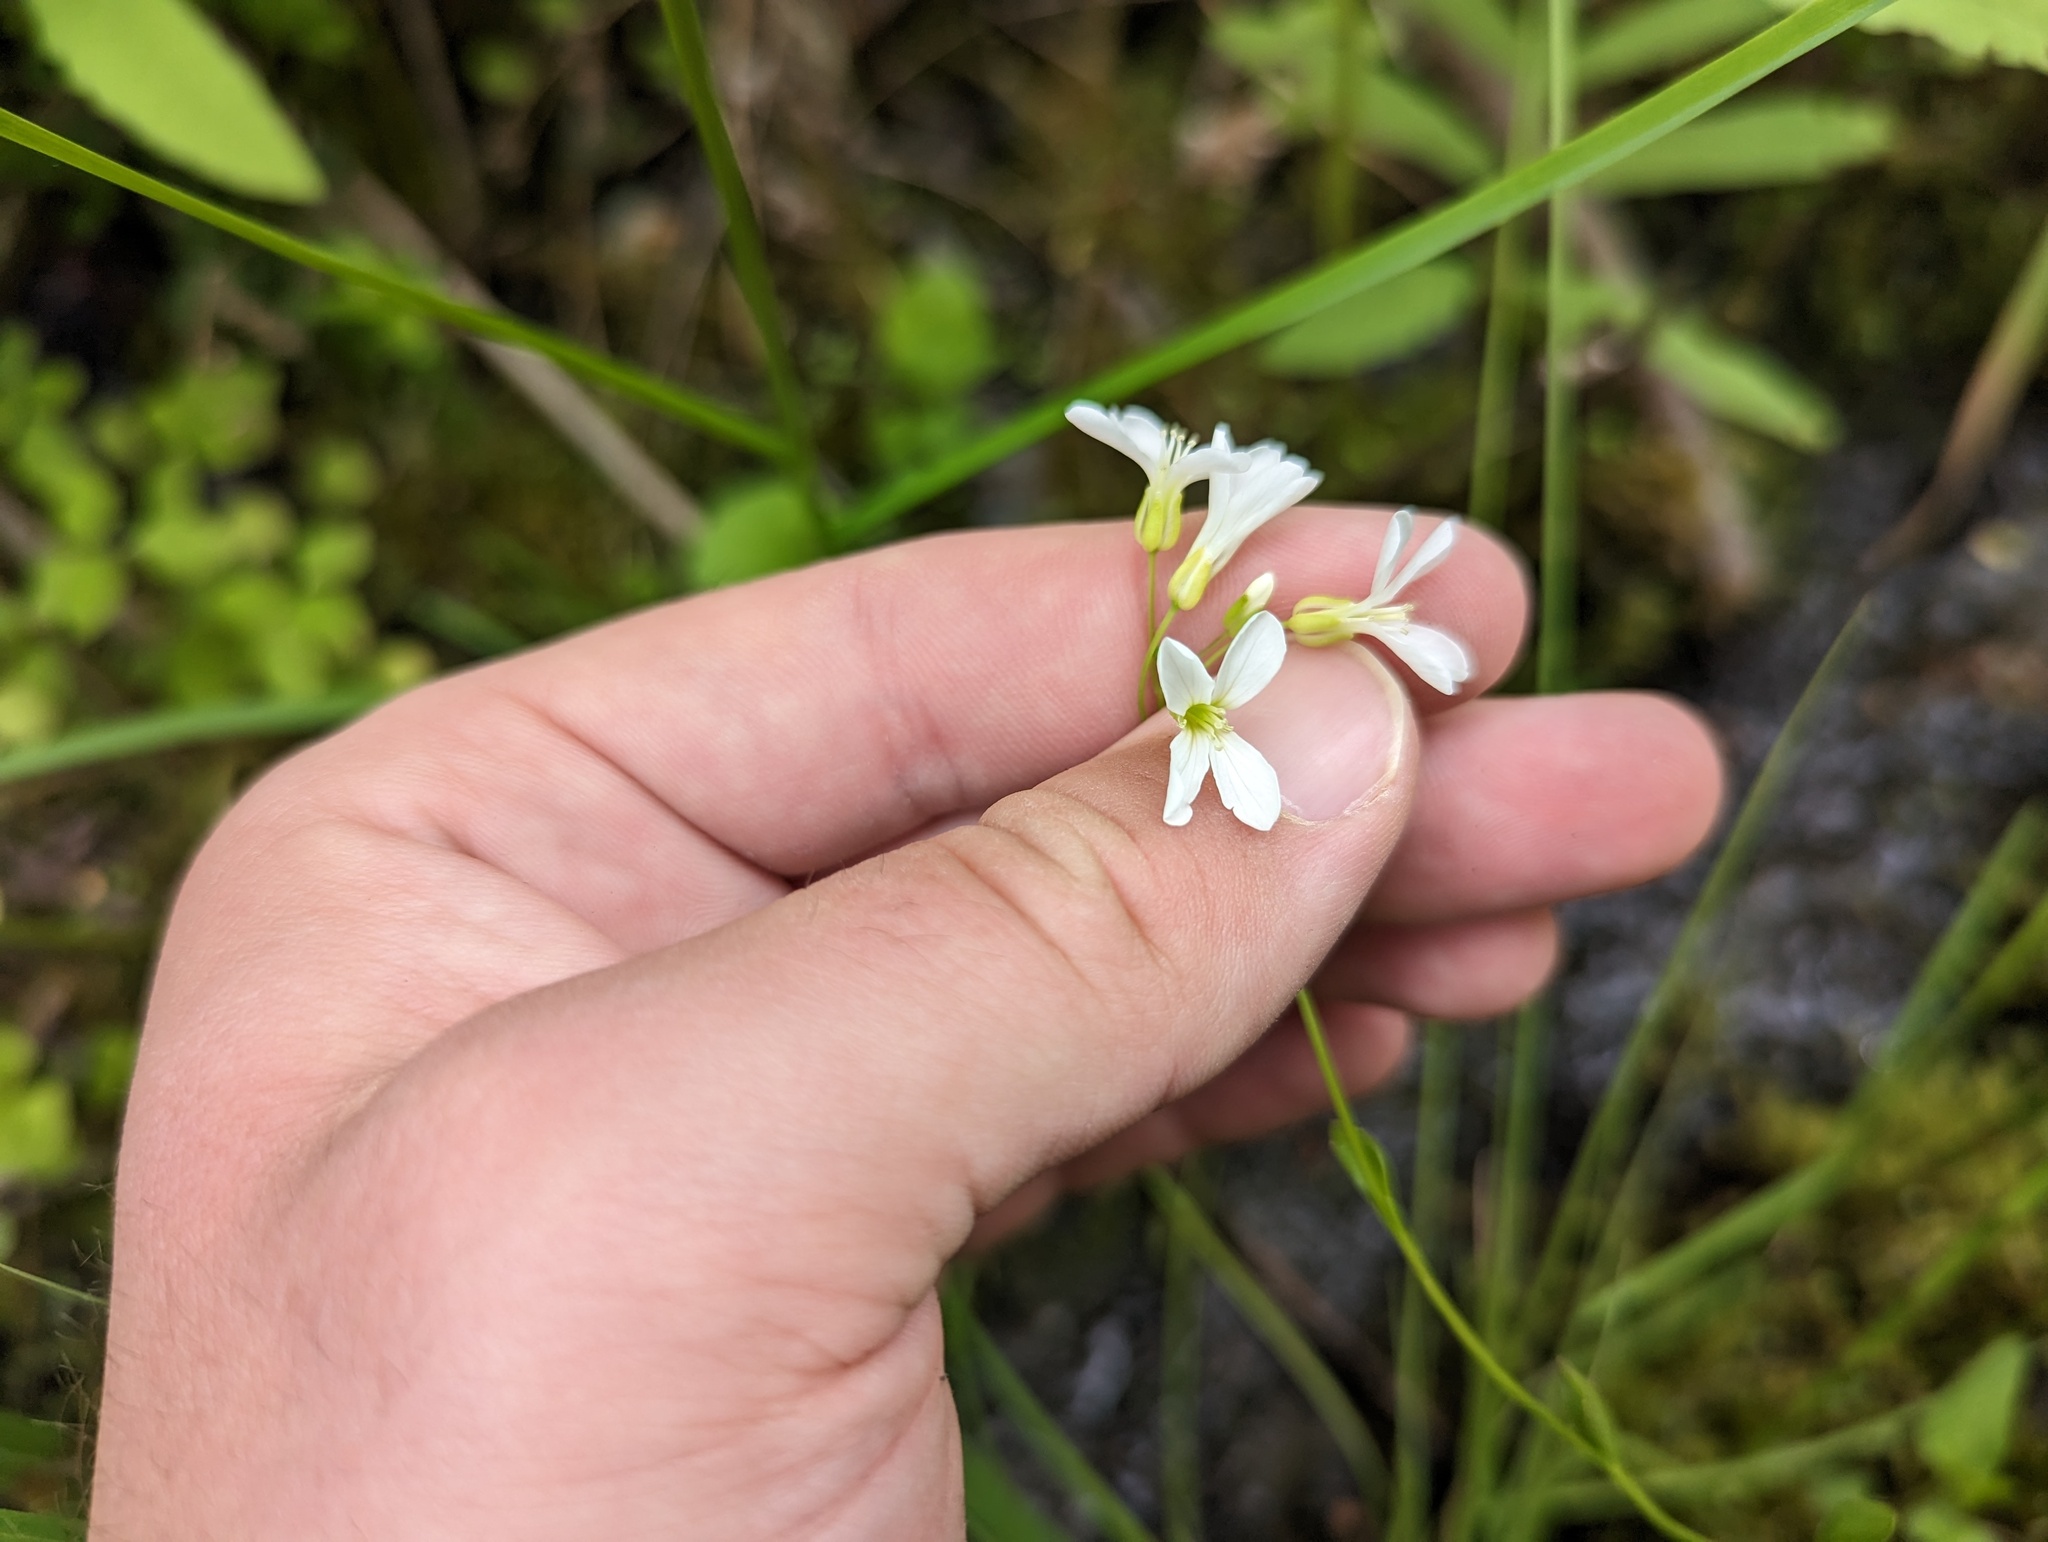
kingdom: Plantae
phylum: Tracheophyta
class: Magnoliopsida
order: Brassicales
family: Brassicaceae
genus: Cardamine
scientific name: Cardamine bulbosa
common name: Spring cress
